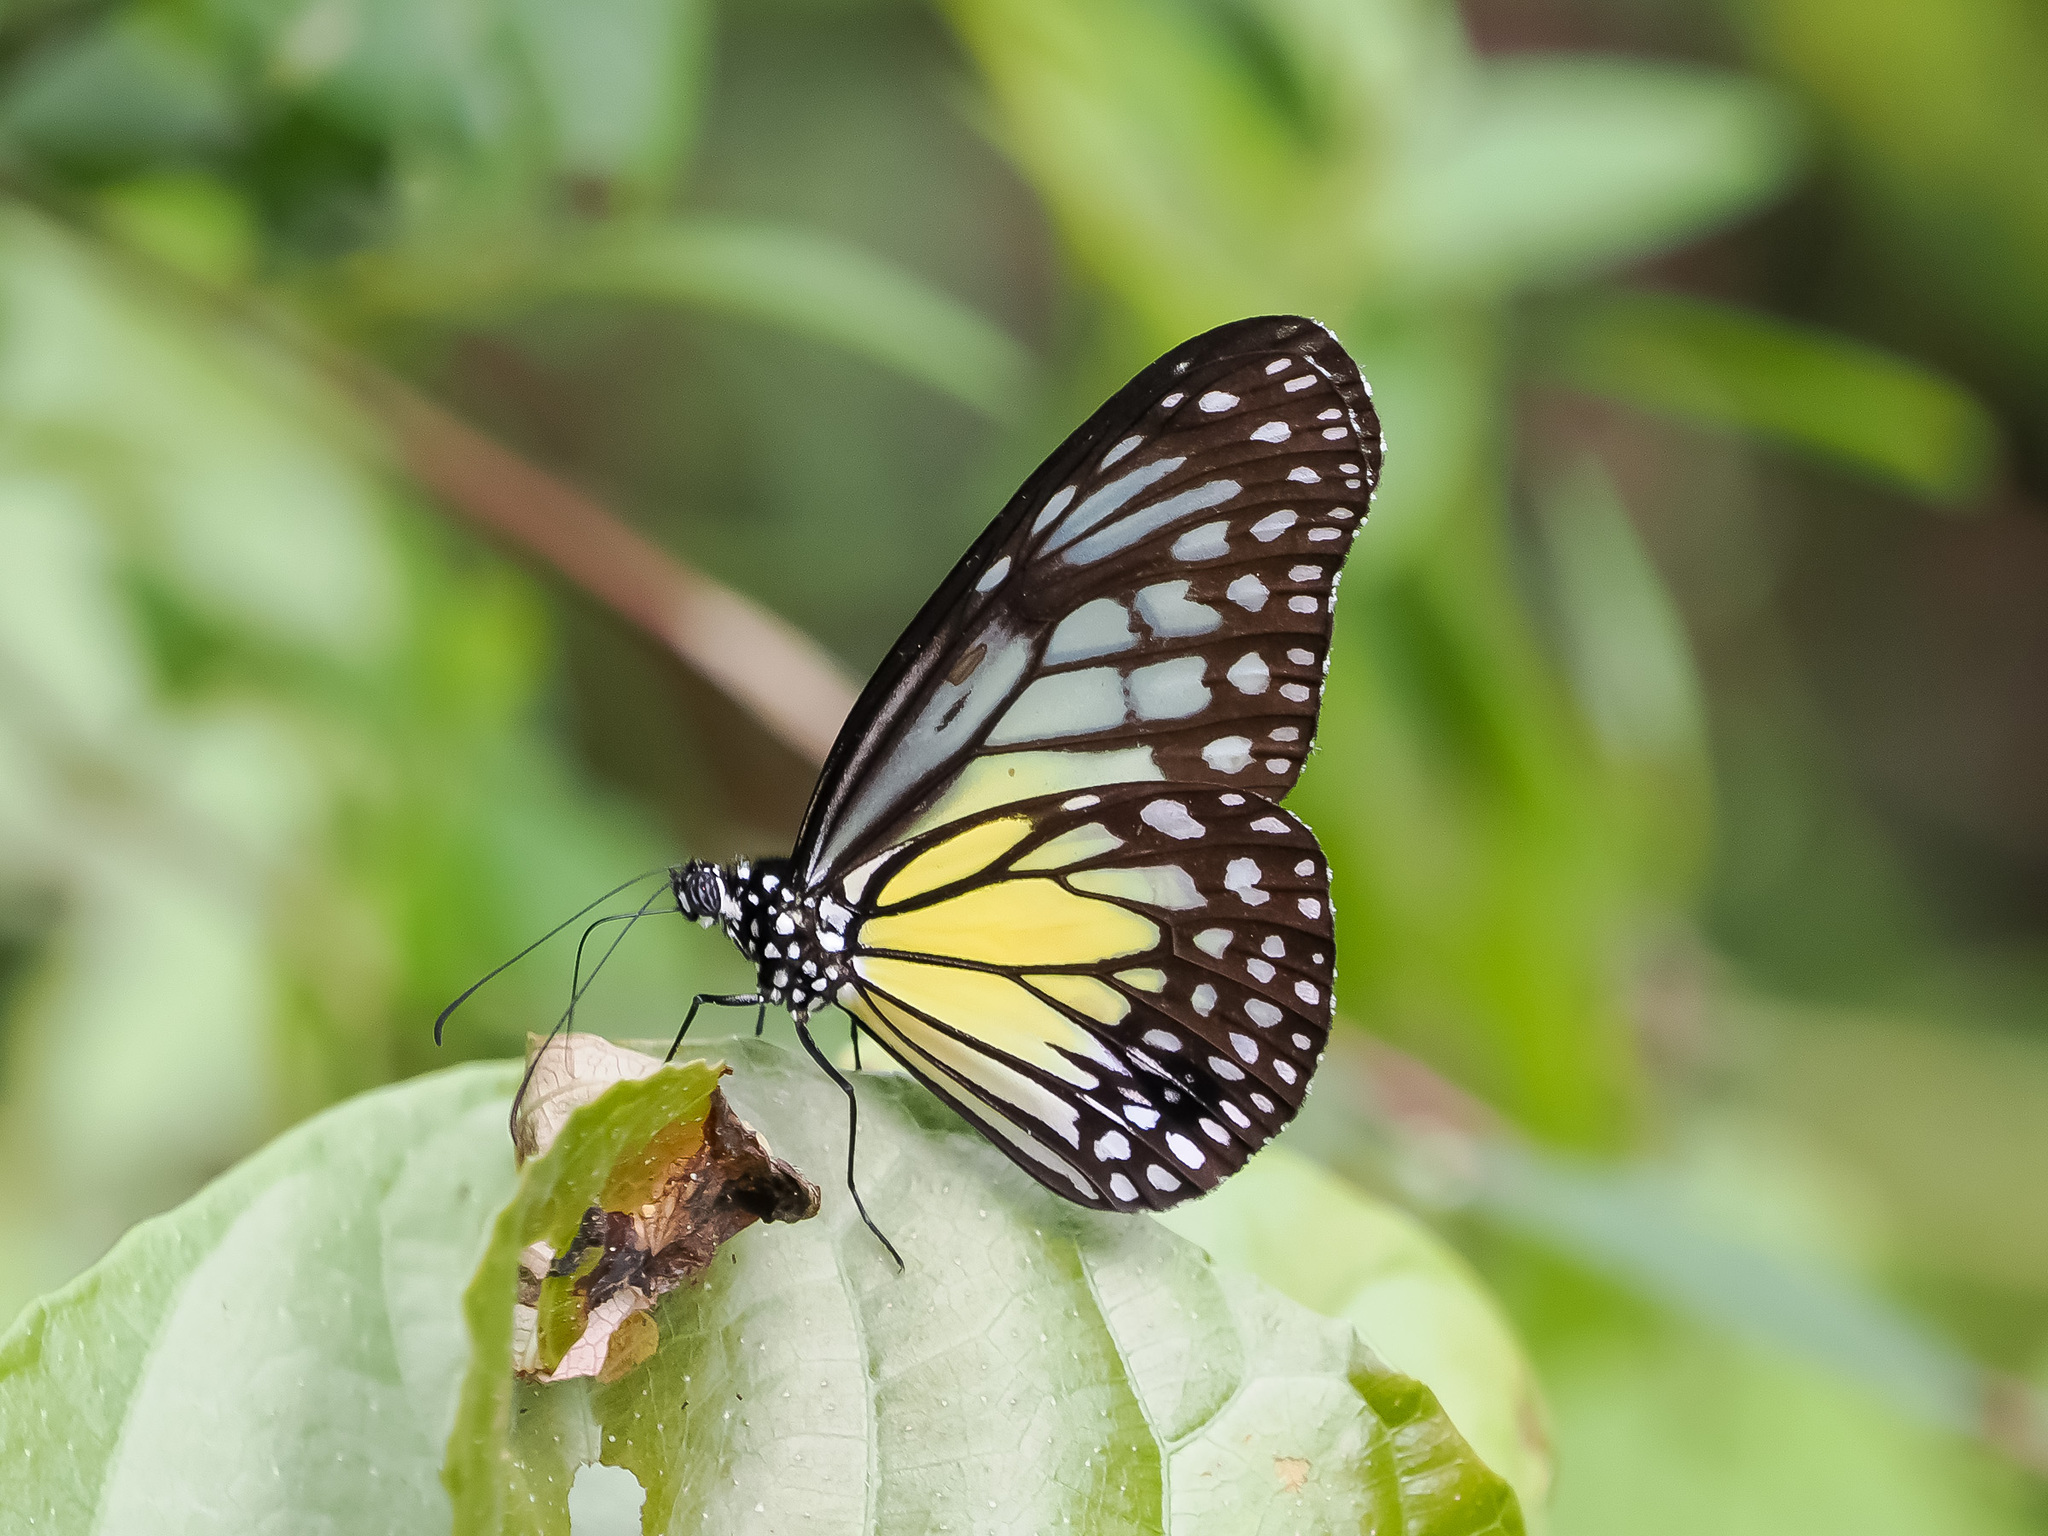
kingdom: Animalia
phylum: Arthropoda
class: Insecta
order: Lepidoptera
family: Nymphalidae
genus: Parantica
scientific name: Parantica aspasia
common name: Yellow glassy tiger
